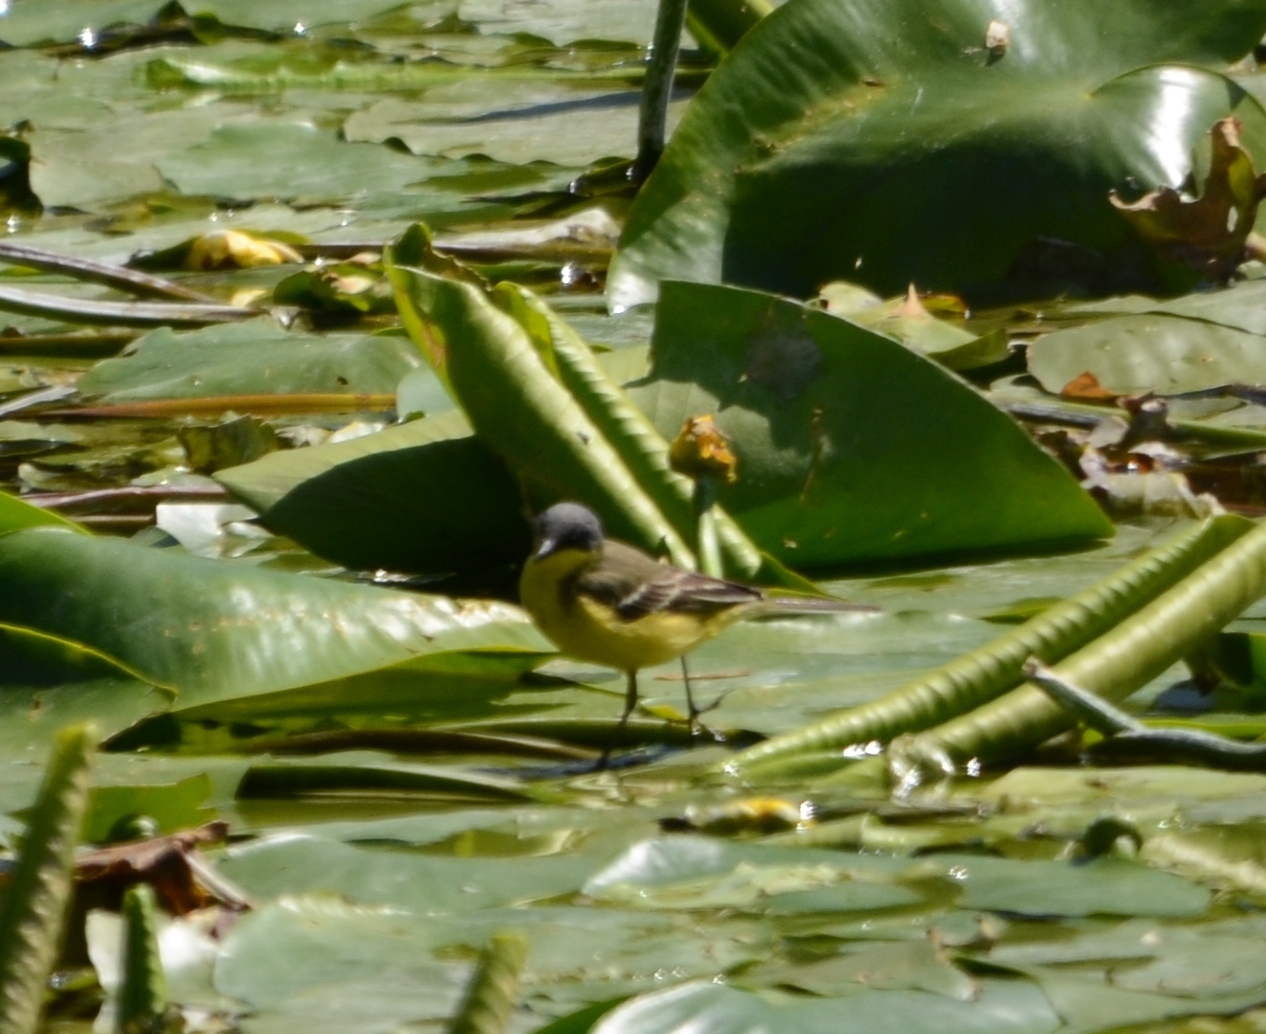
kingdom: Animalia
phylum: Chordata
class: Aves
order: Passeriformes
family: Motacillidae
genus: Motacilla
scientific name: Motacilla flava
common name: Western yellow wagtail
